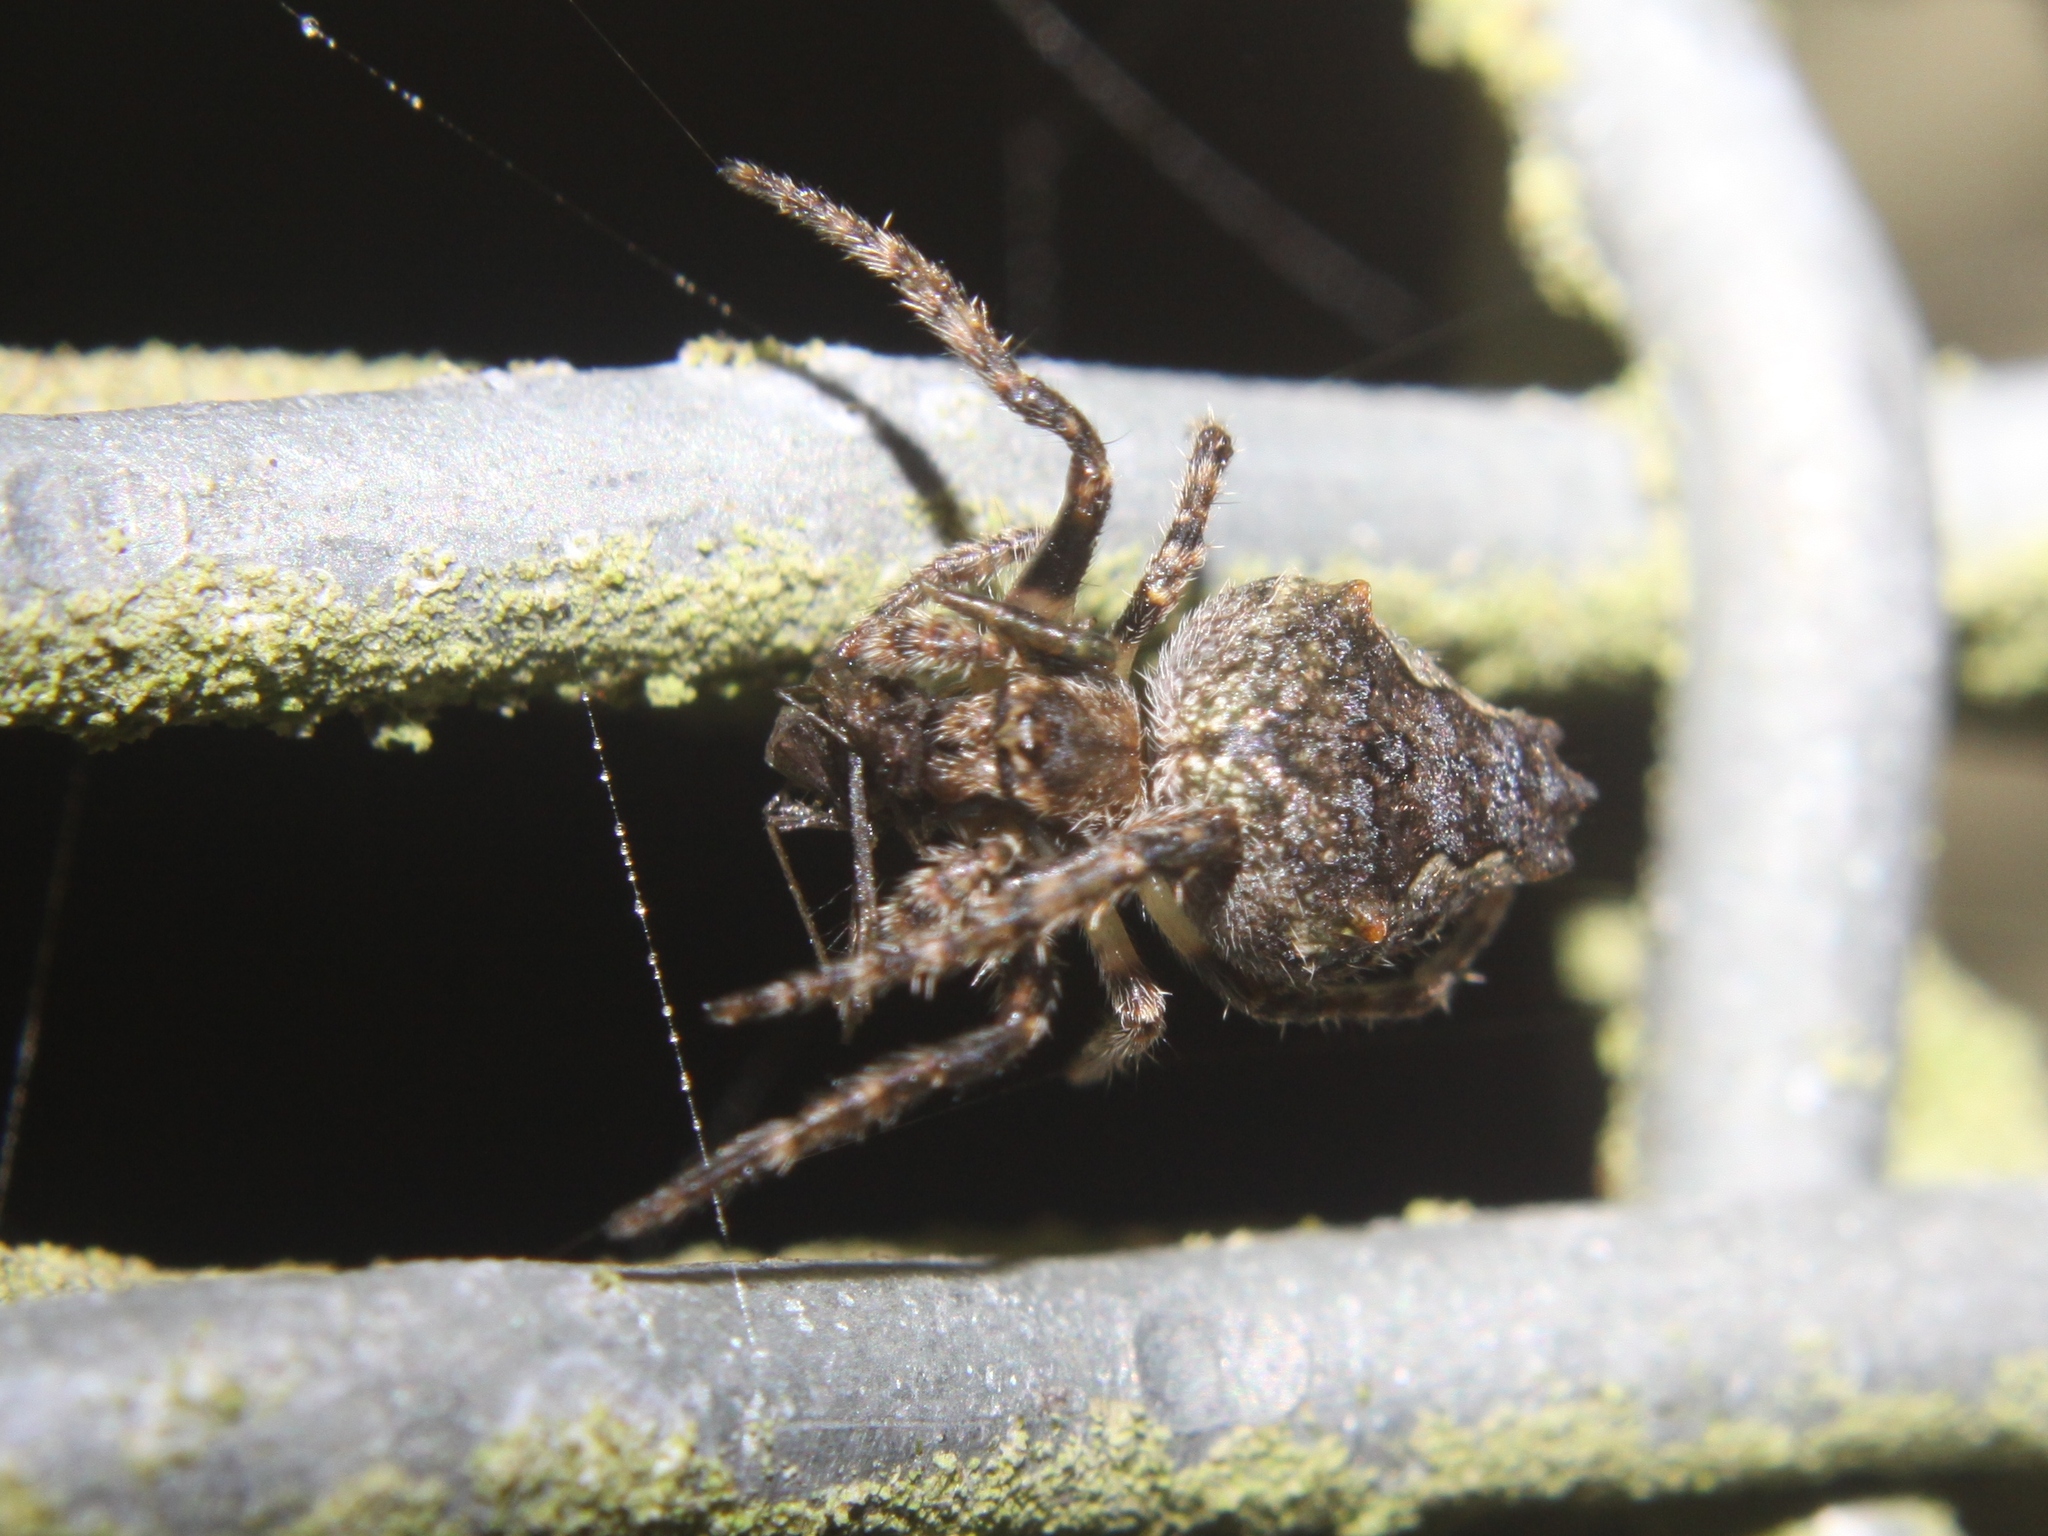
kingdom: Animalia
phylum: Arthropoda
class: Arachnida
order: Araneae
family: Araneidae
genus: Eriophora
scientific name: Eriophora pustulosa
